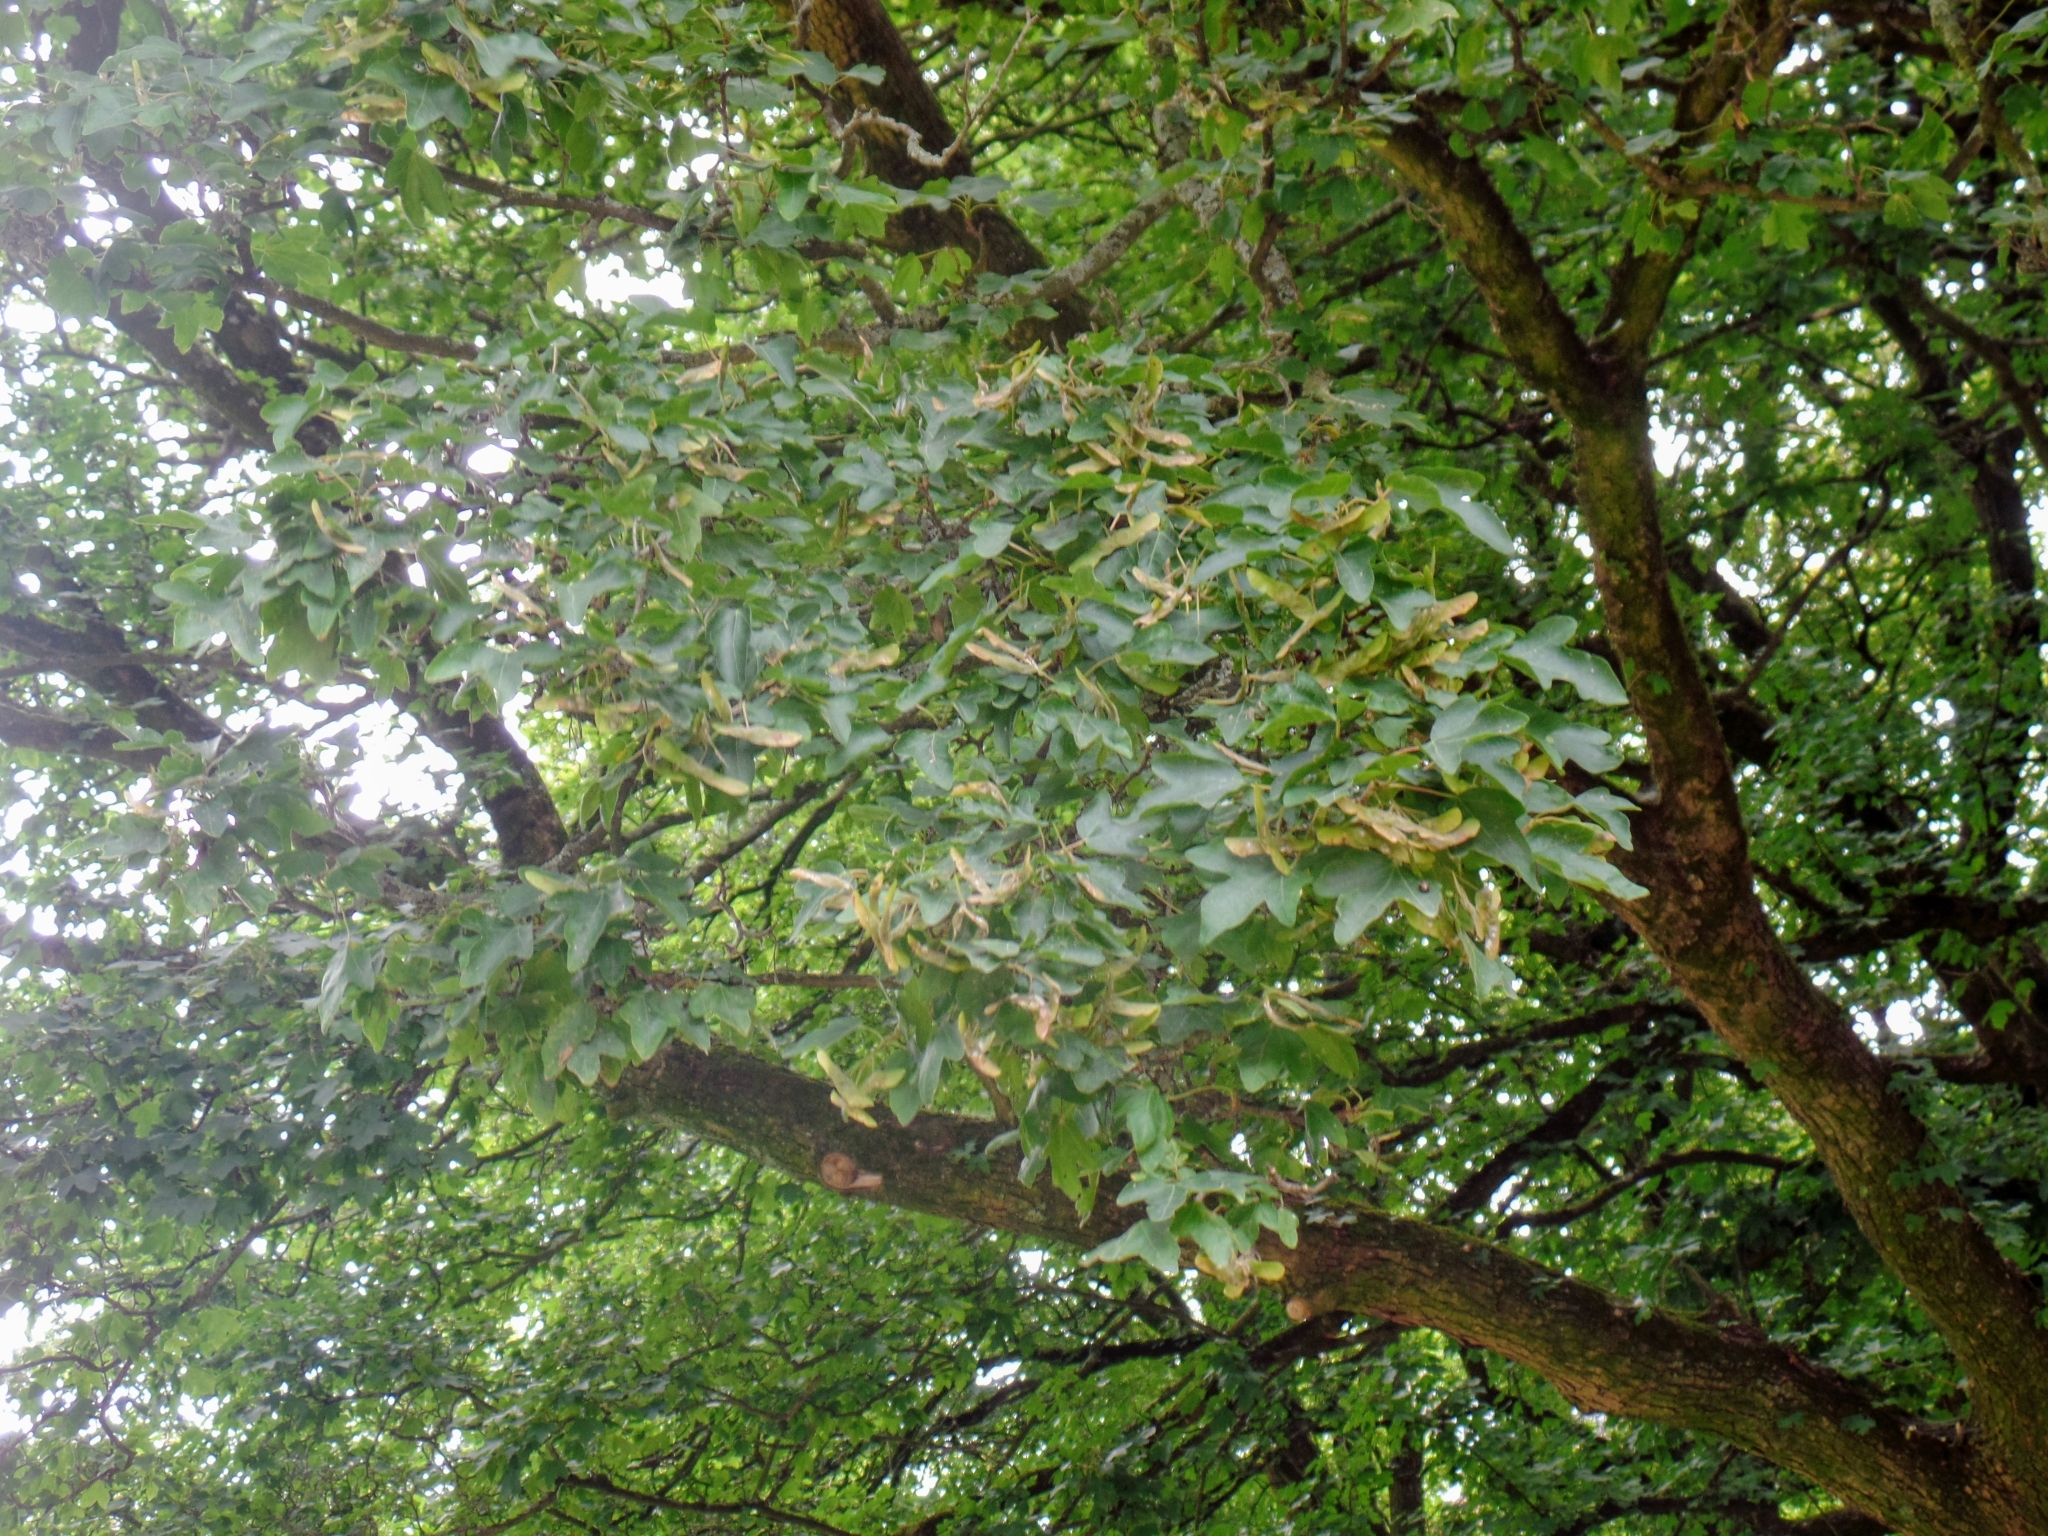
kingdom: Plantae
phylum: Tracheophyta
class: Magnoliopsida
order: Sapindales
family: Sapindaceae
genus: Acer
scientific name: Acer campestre
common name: Field maple
